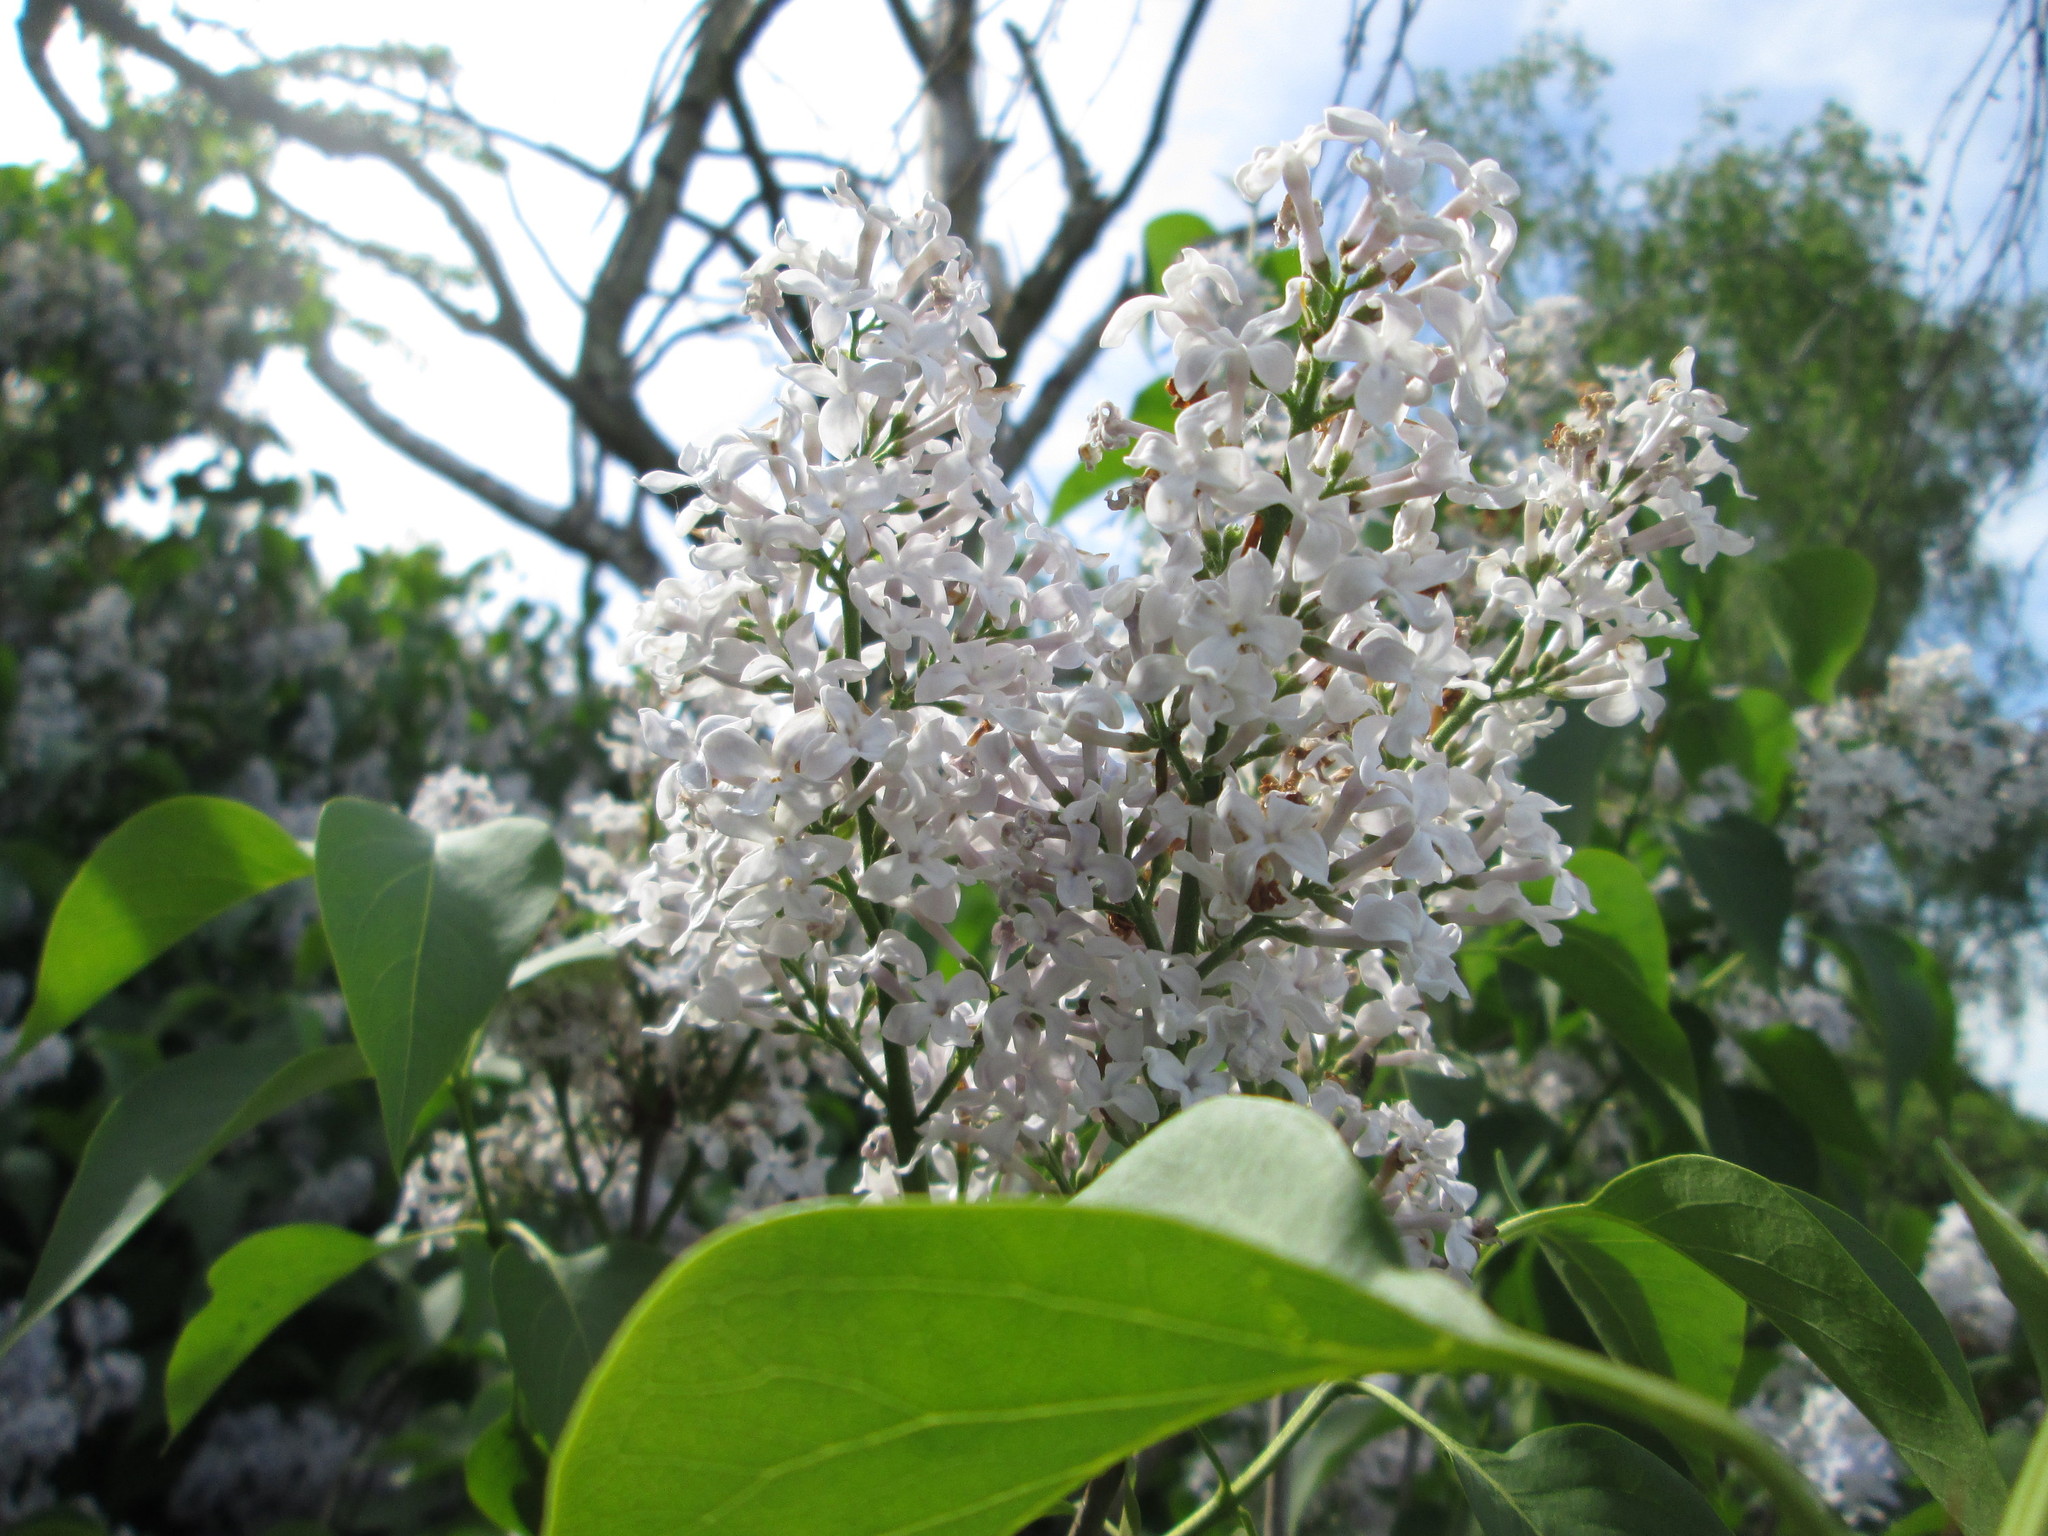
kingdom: Plantae
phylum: Tracheophyta
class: Magnoliopsida
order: Lamiales
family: Oleaceae
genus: Syringa
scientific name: Syringa vulgaris
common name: Common lilac
